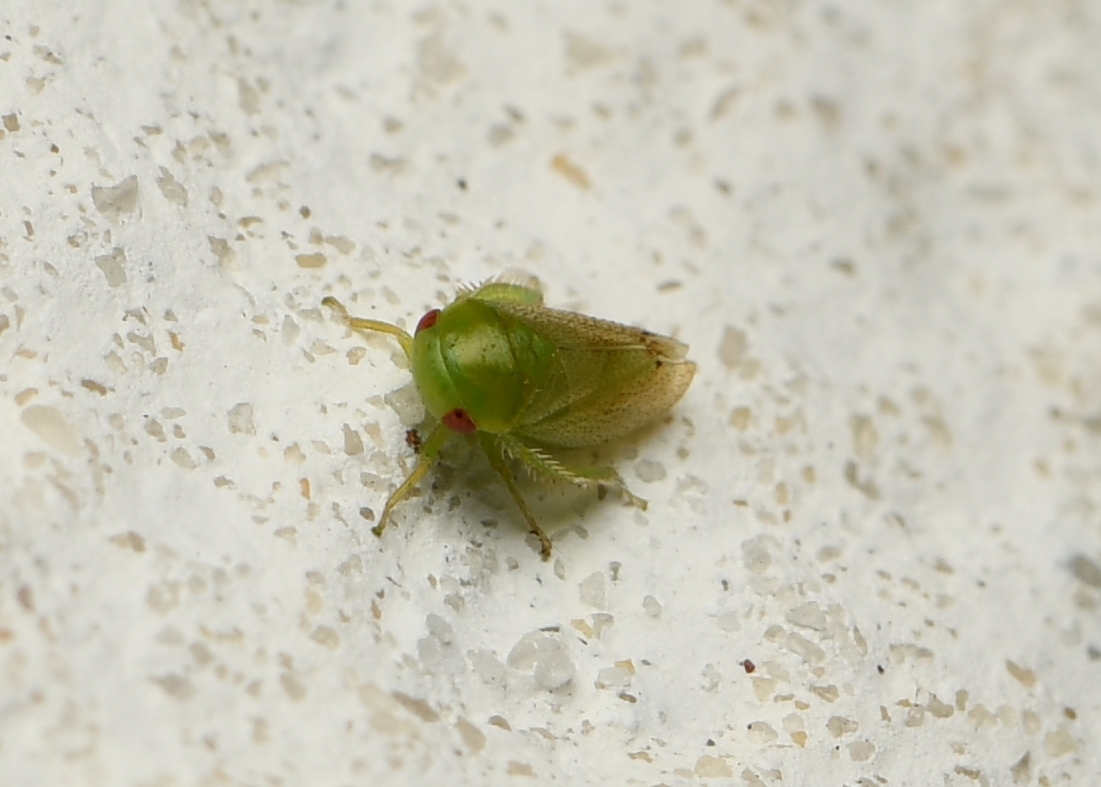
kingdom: Animalia
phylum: Arthropoda
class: Insecta
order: Hemiptera
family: Cicadellidae
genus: Penestragania
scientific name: Penestragania robusta
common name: Robust leafhopper
